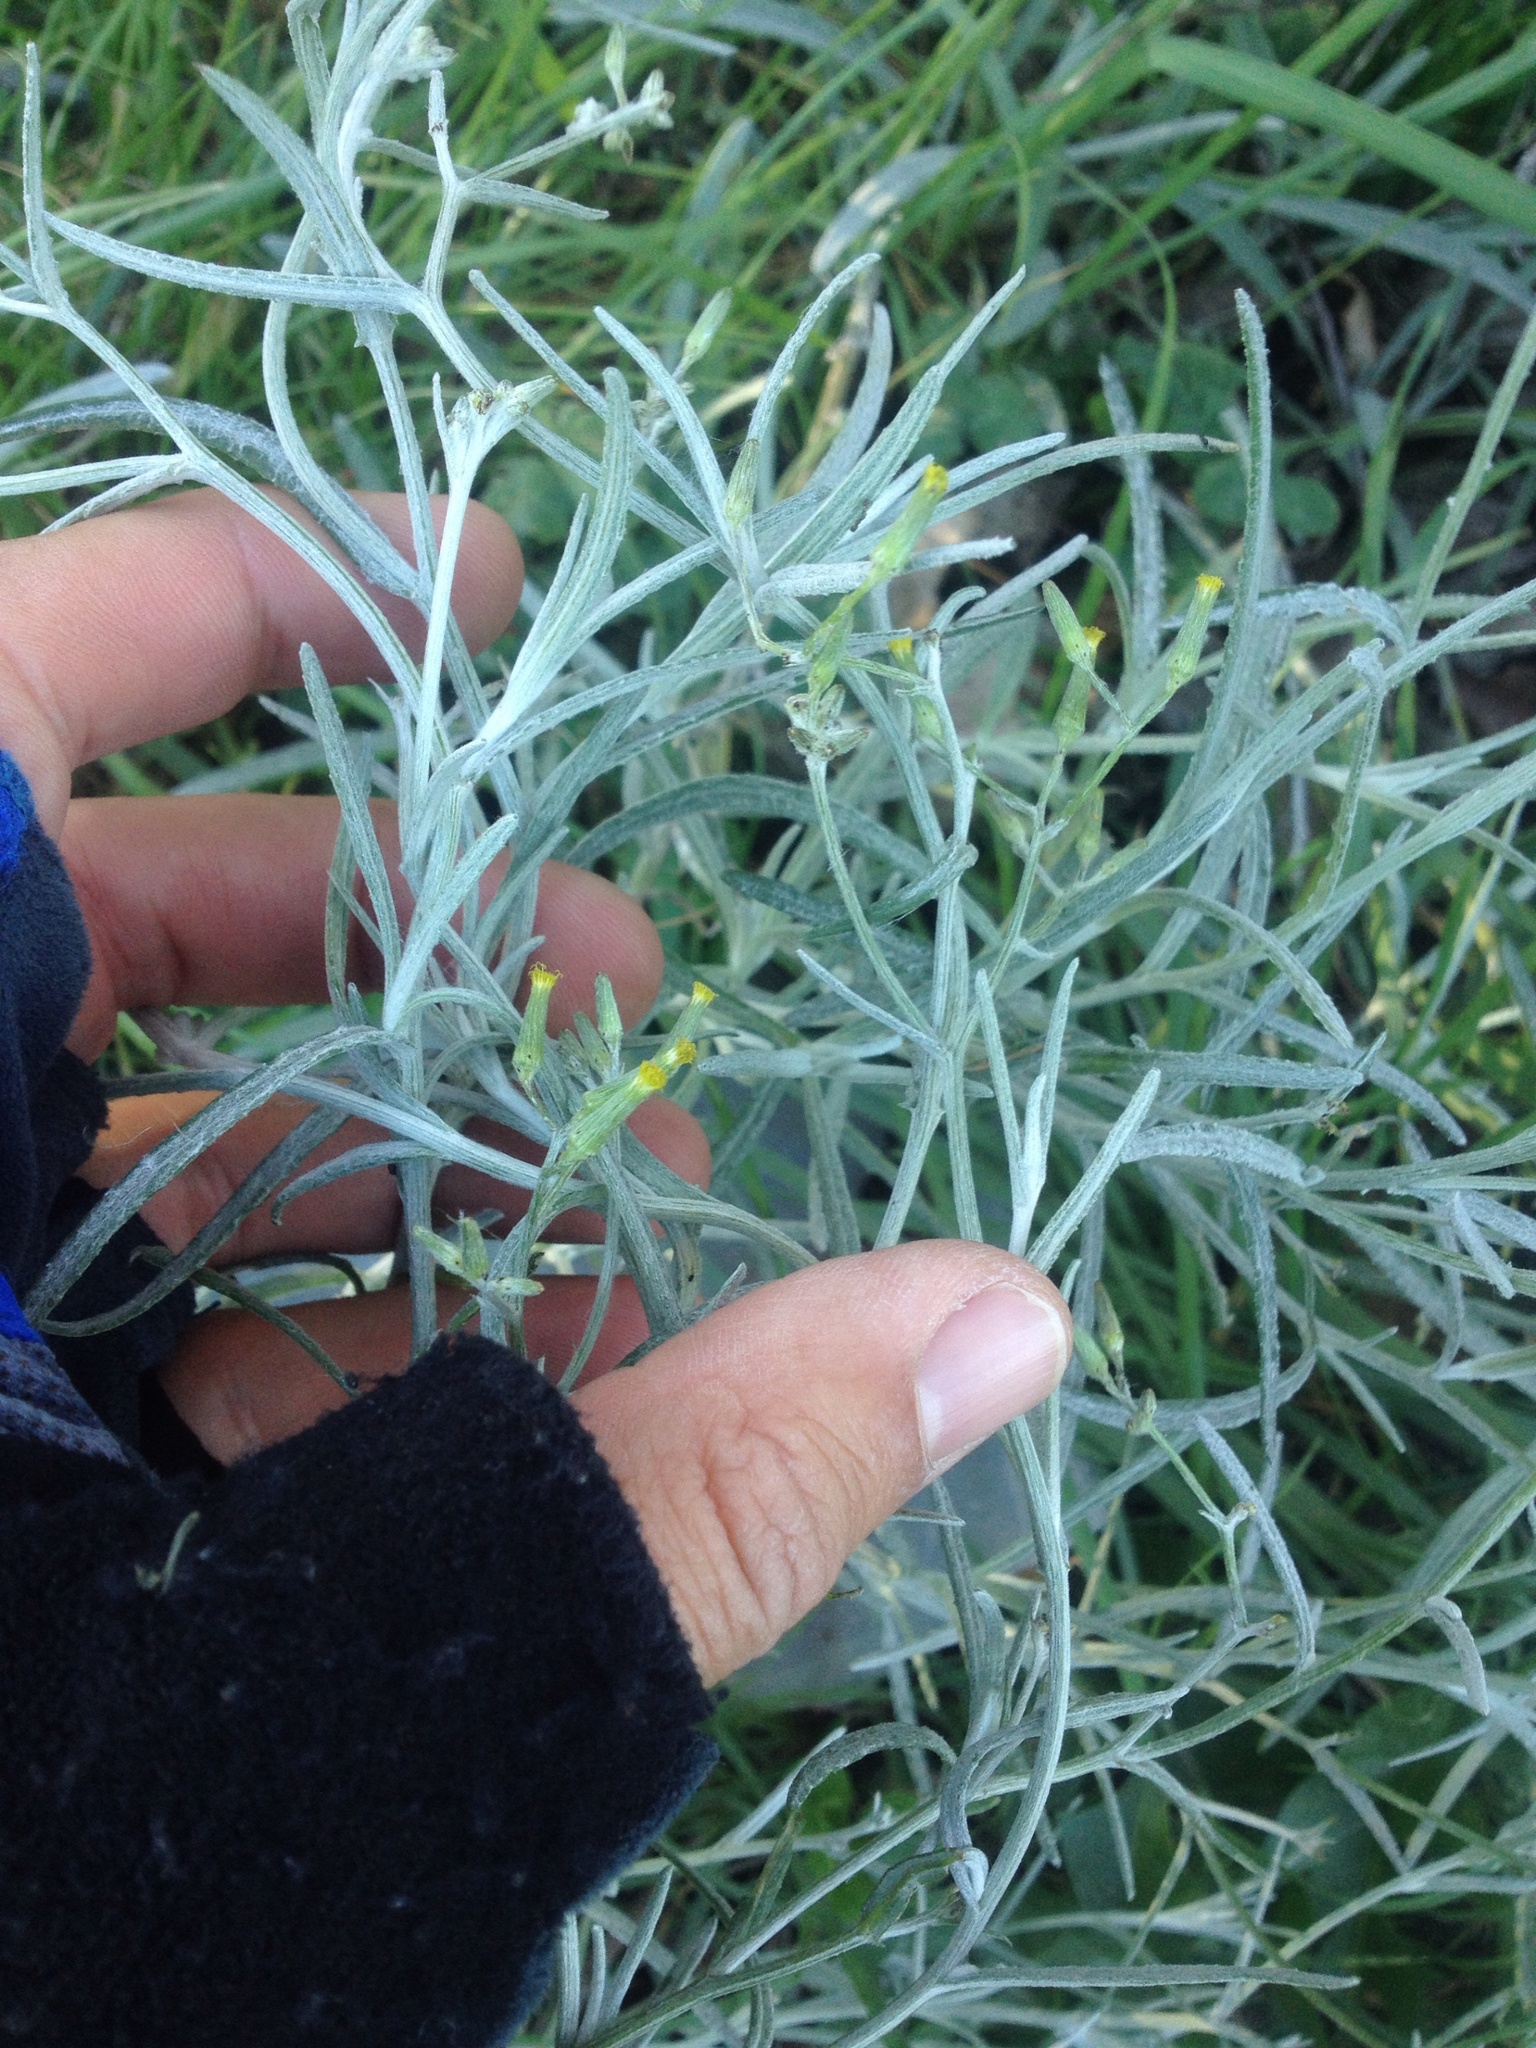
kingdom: Plantae
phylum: Tracheophyta
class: Magnoliopsida
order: Asterales
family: Asteraceae
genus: Senecio
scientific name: Senecio quadridentatus
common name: Cotton fireweed
